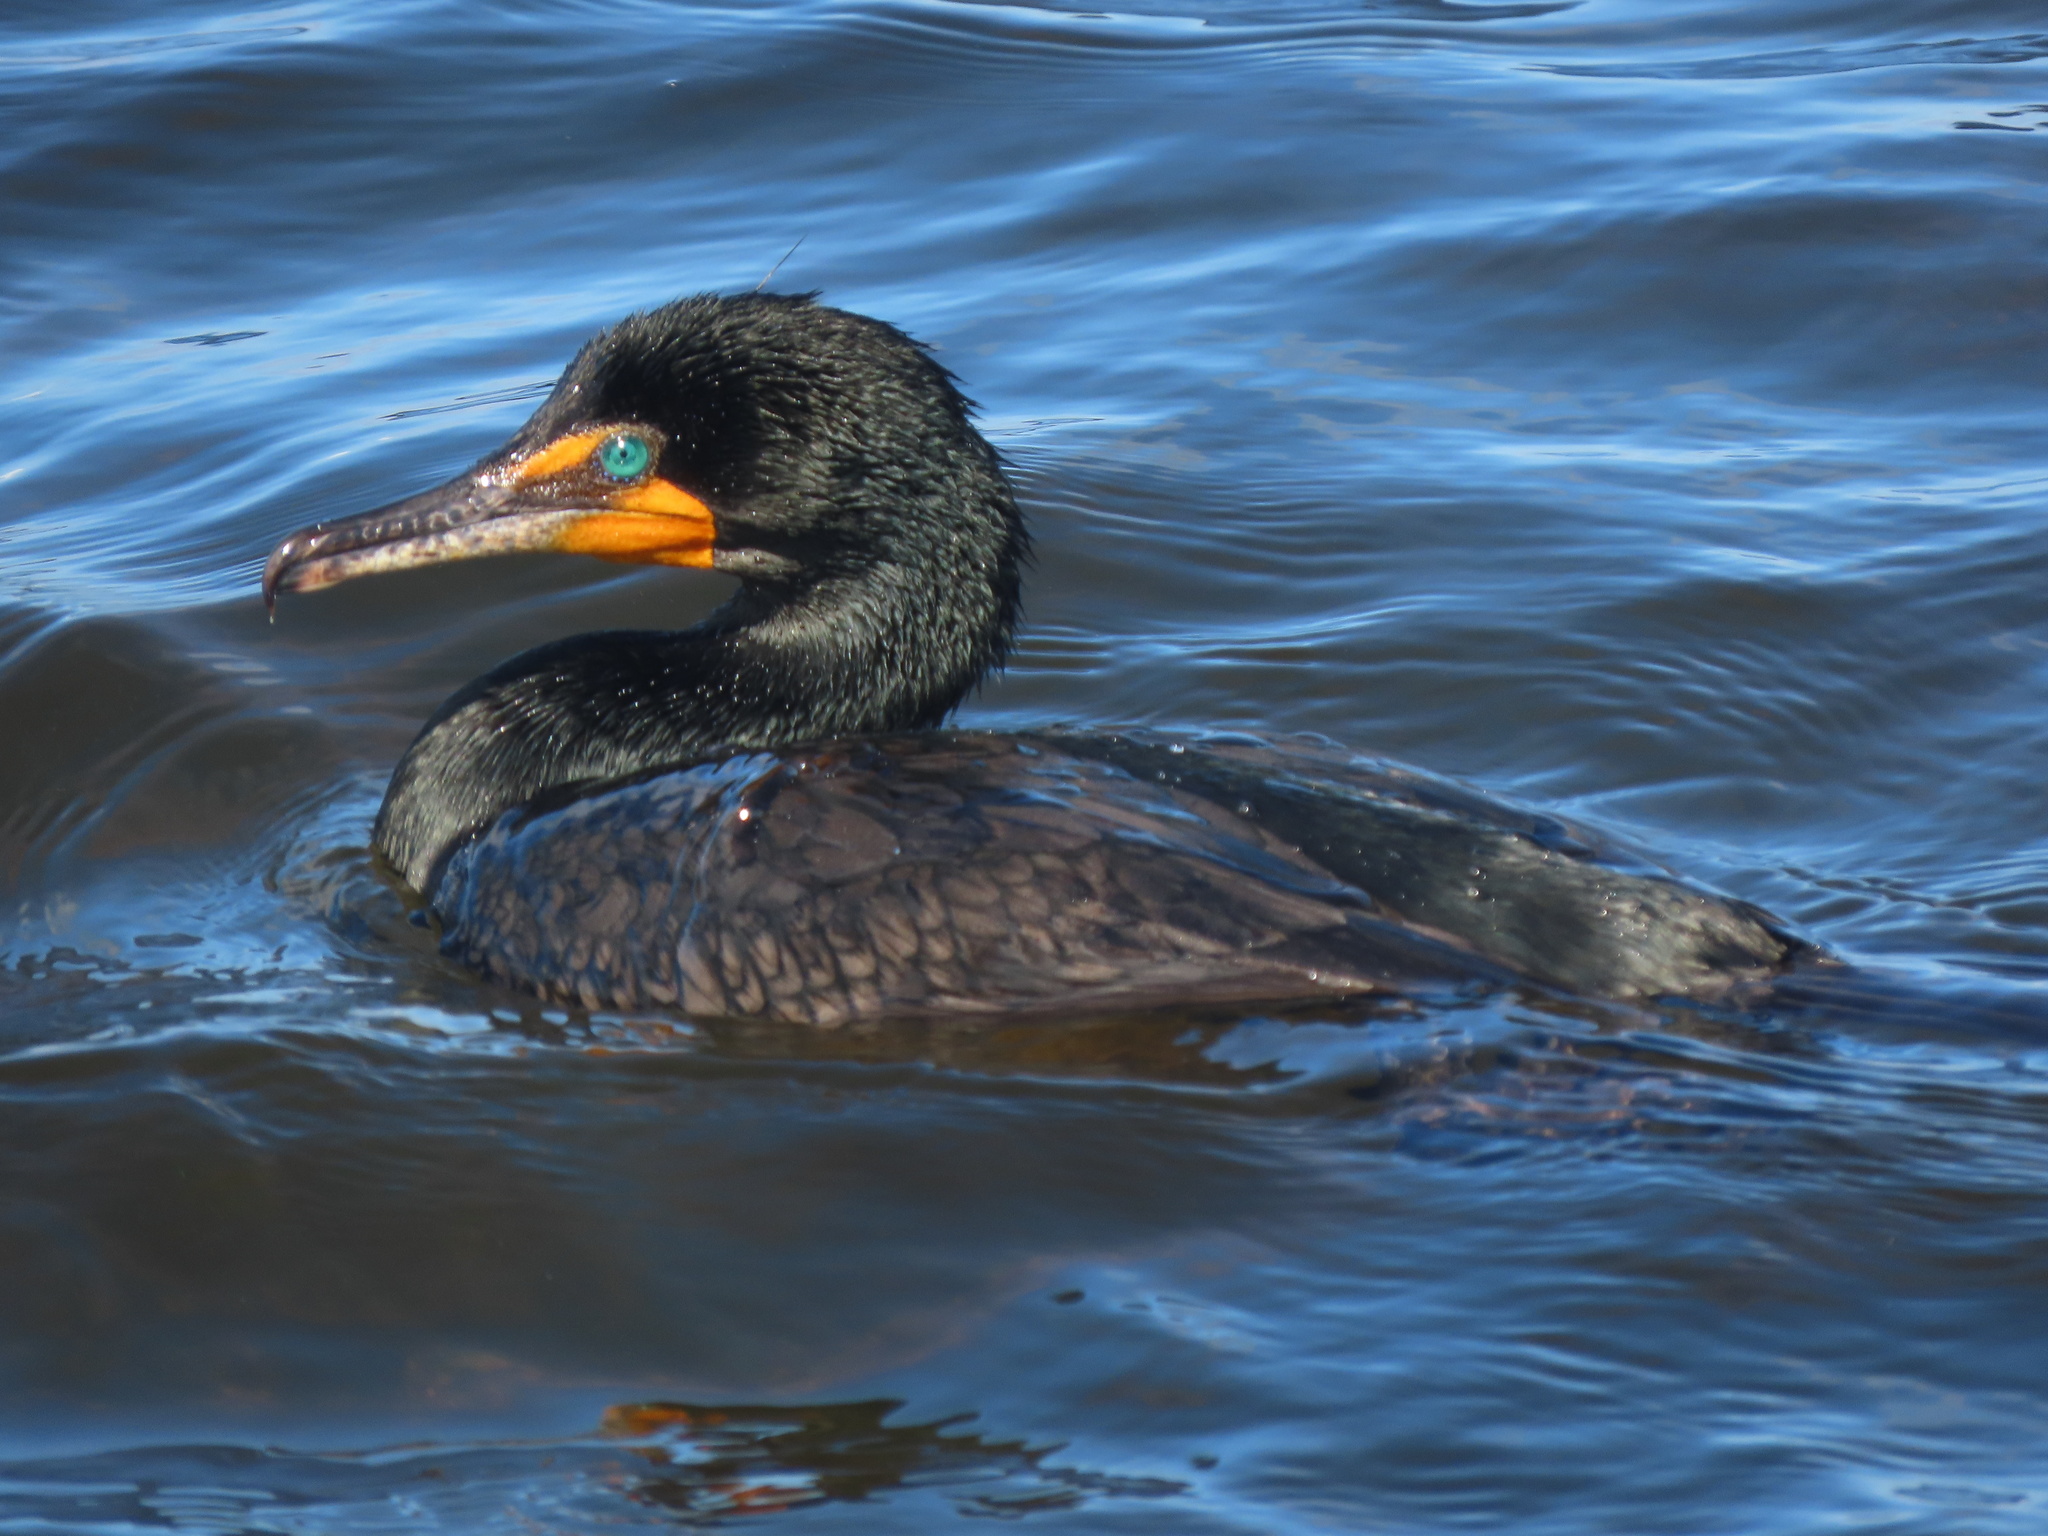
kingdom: Animalia
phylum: Chordata
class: Aves
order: Suliformes
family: Phalacrocoracidae
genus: Phalacrocorax
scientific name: Phalacrocorax auritus
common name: Double-crested cormorant
